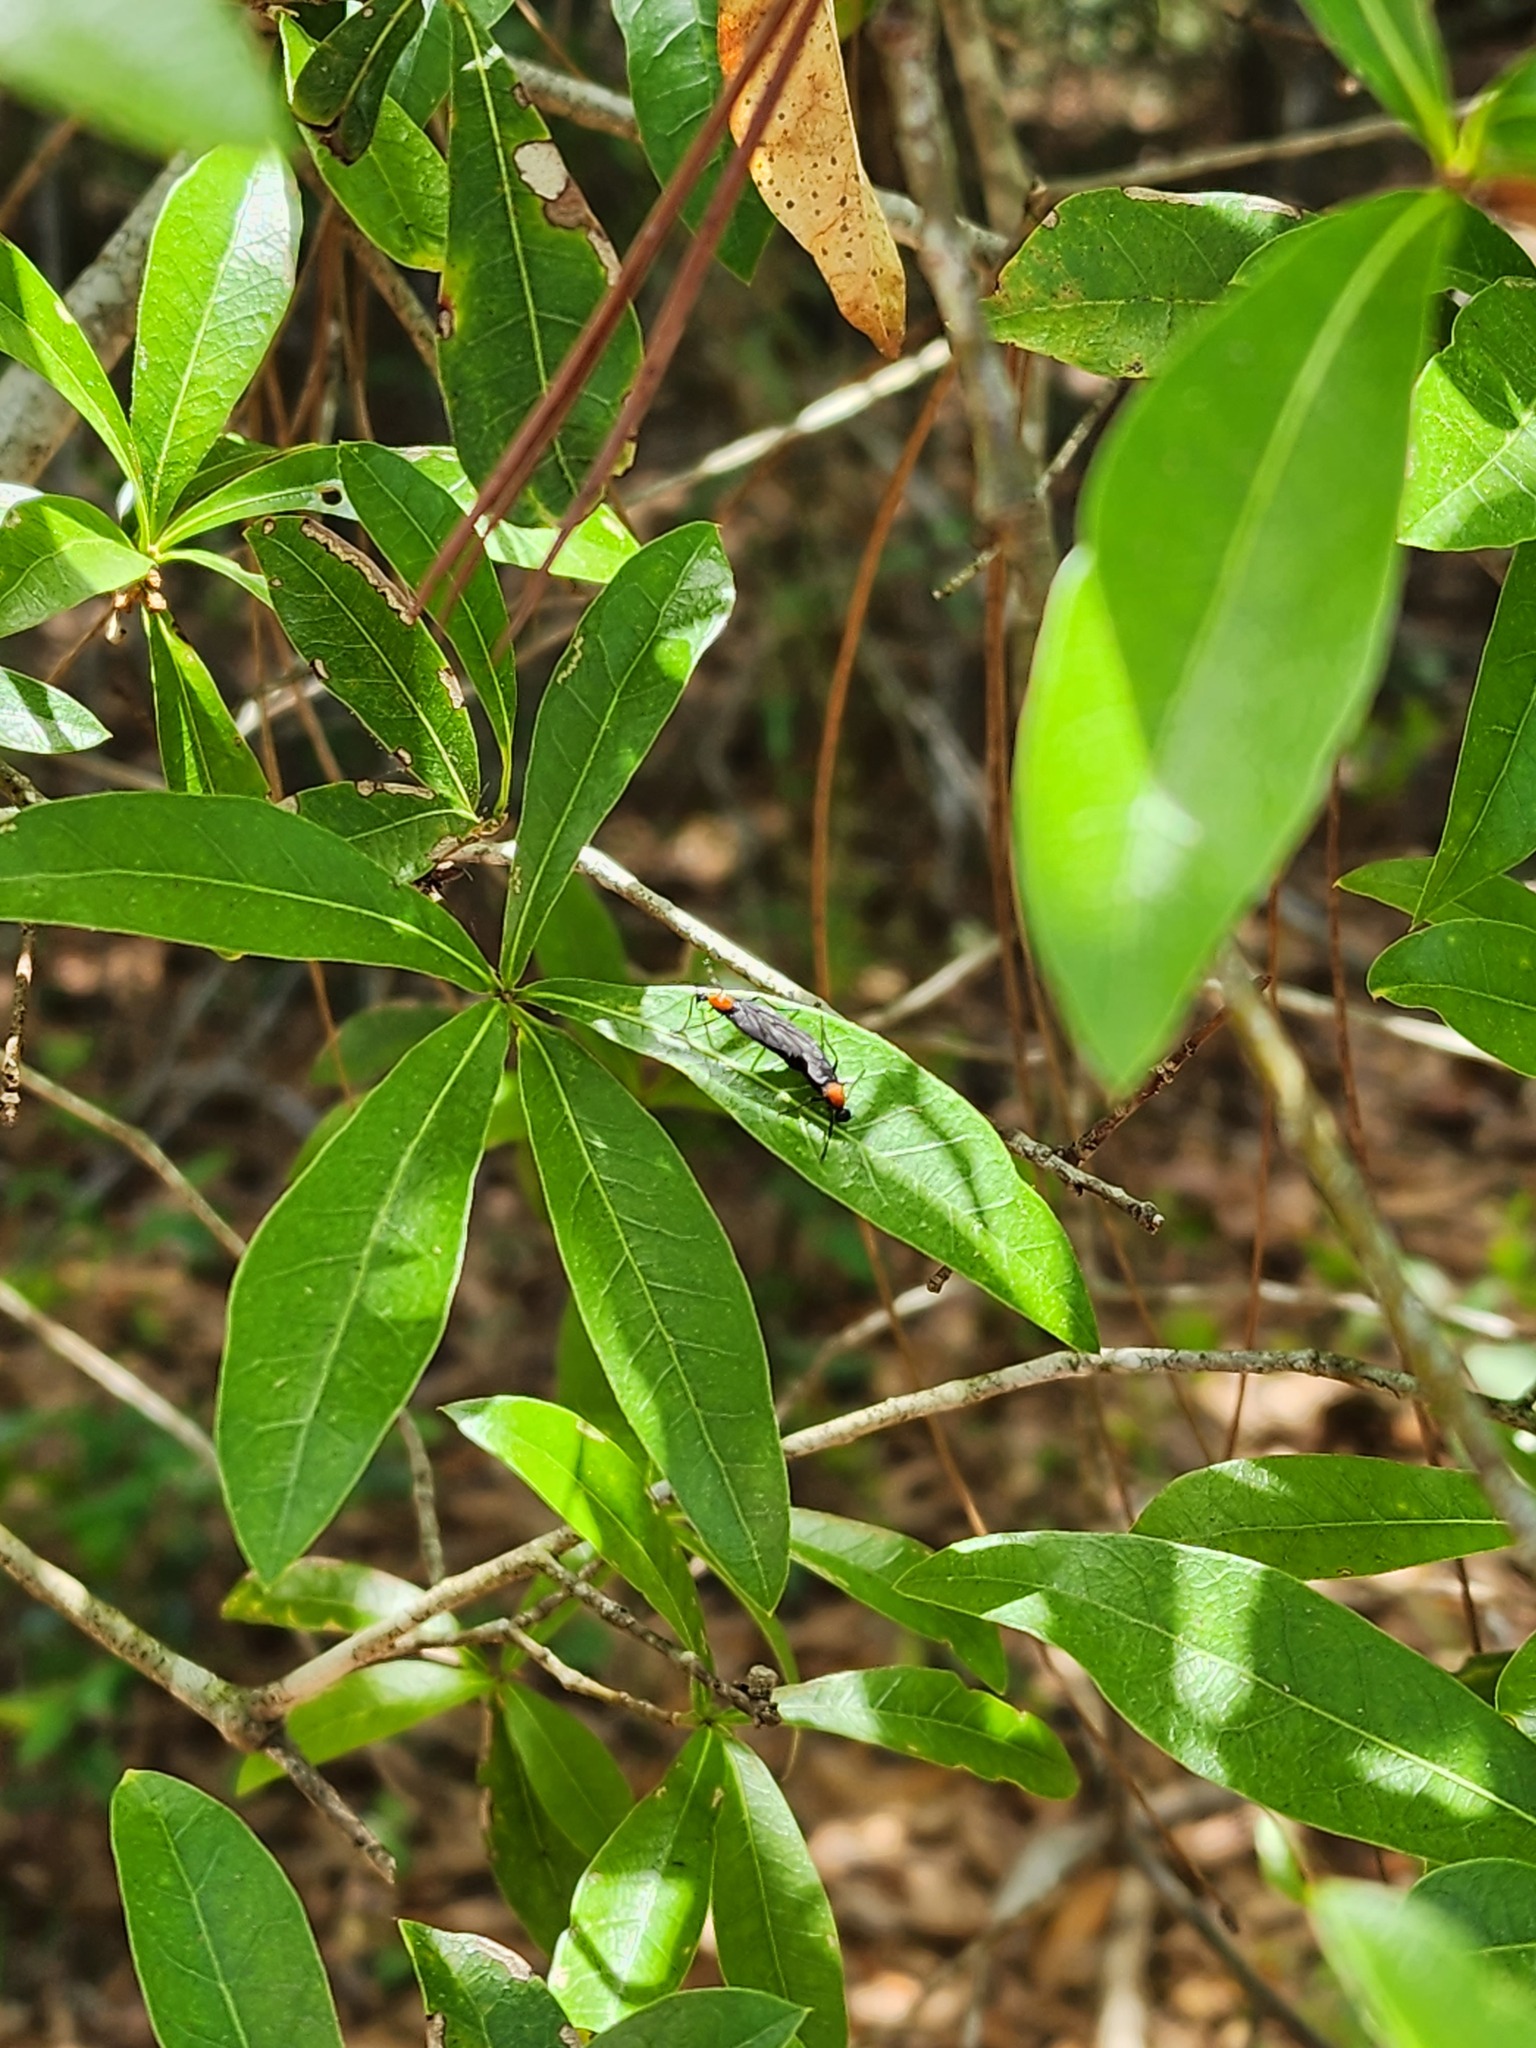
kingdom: Animalia
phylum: Arthropoda
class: Insecta
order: Diptera
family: Bibionidae
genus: Plecia
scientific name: Plecia nearctica
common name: March fly
